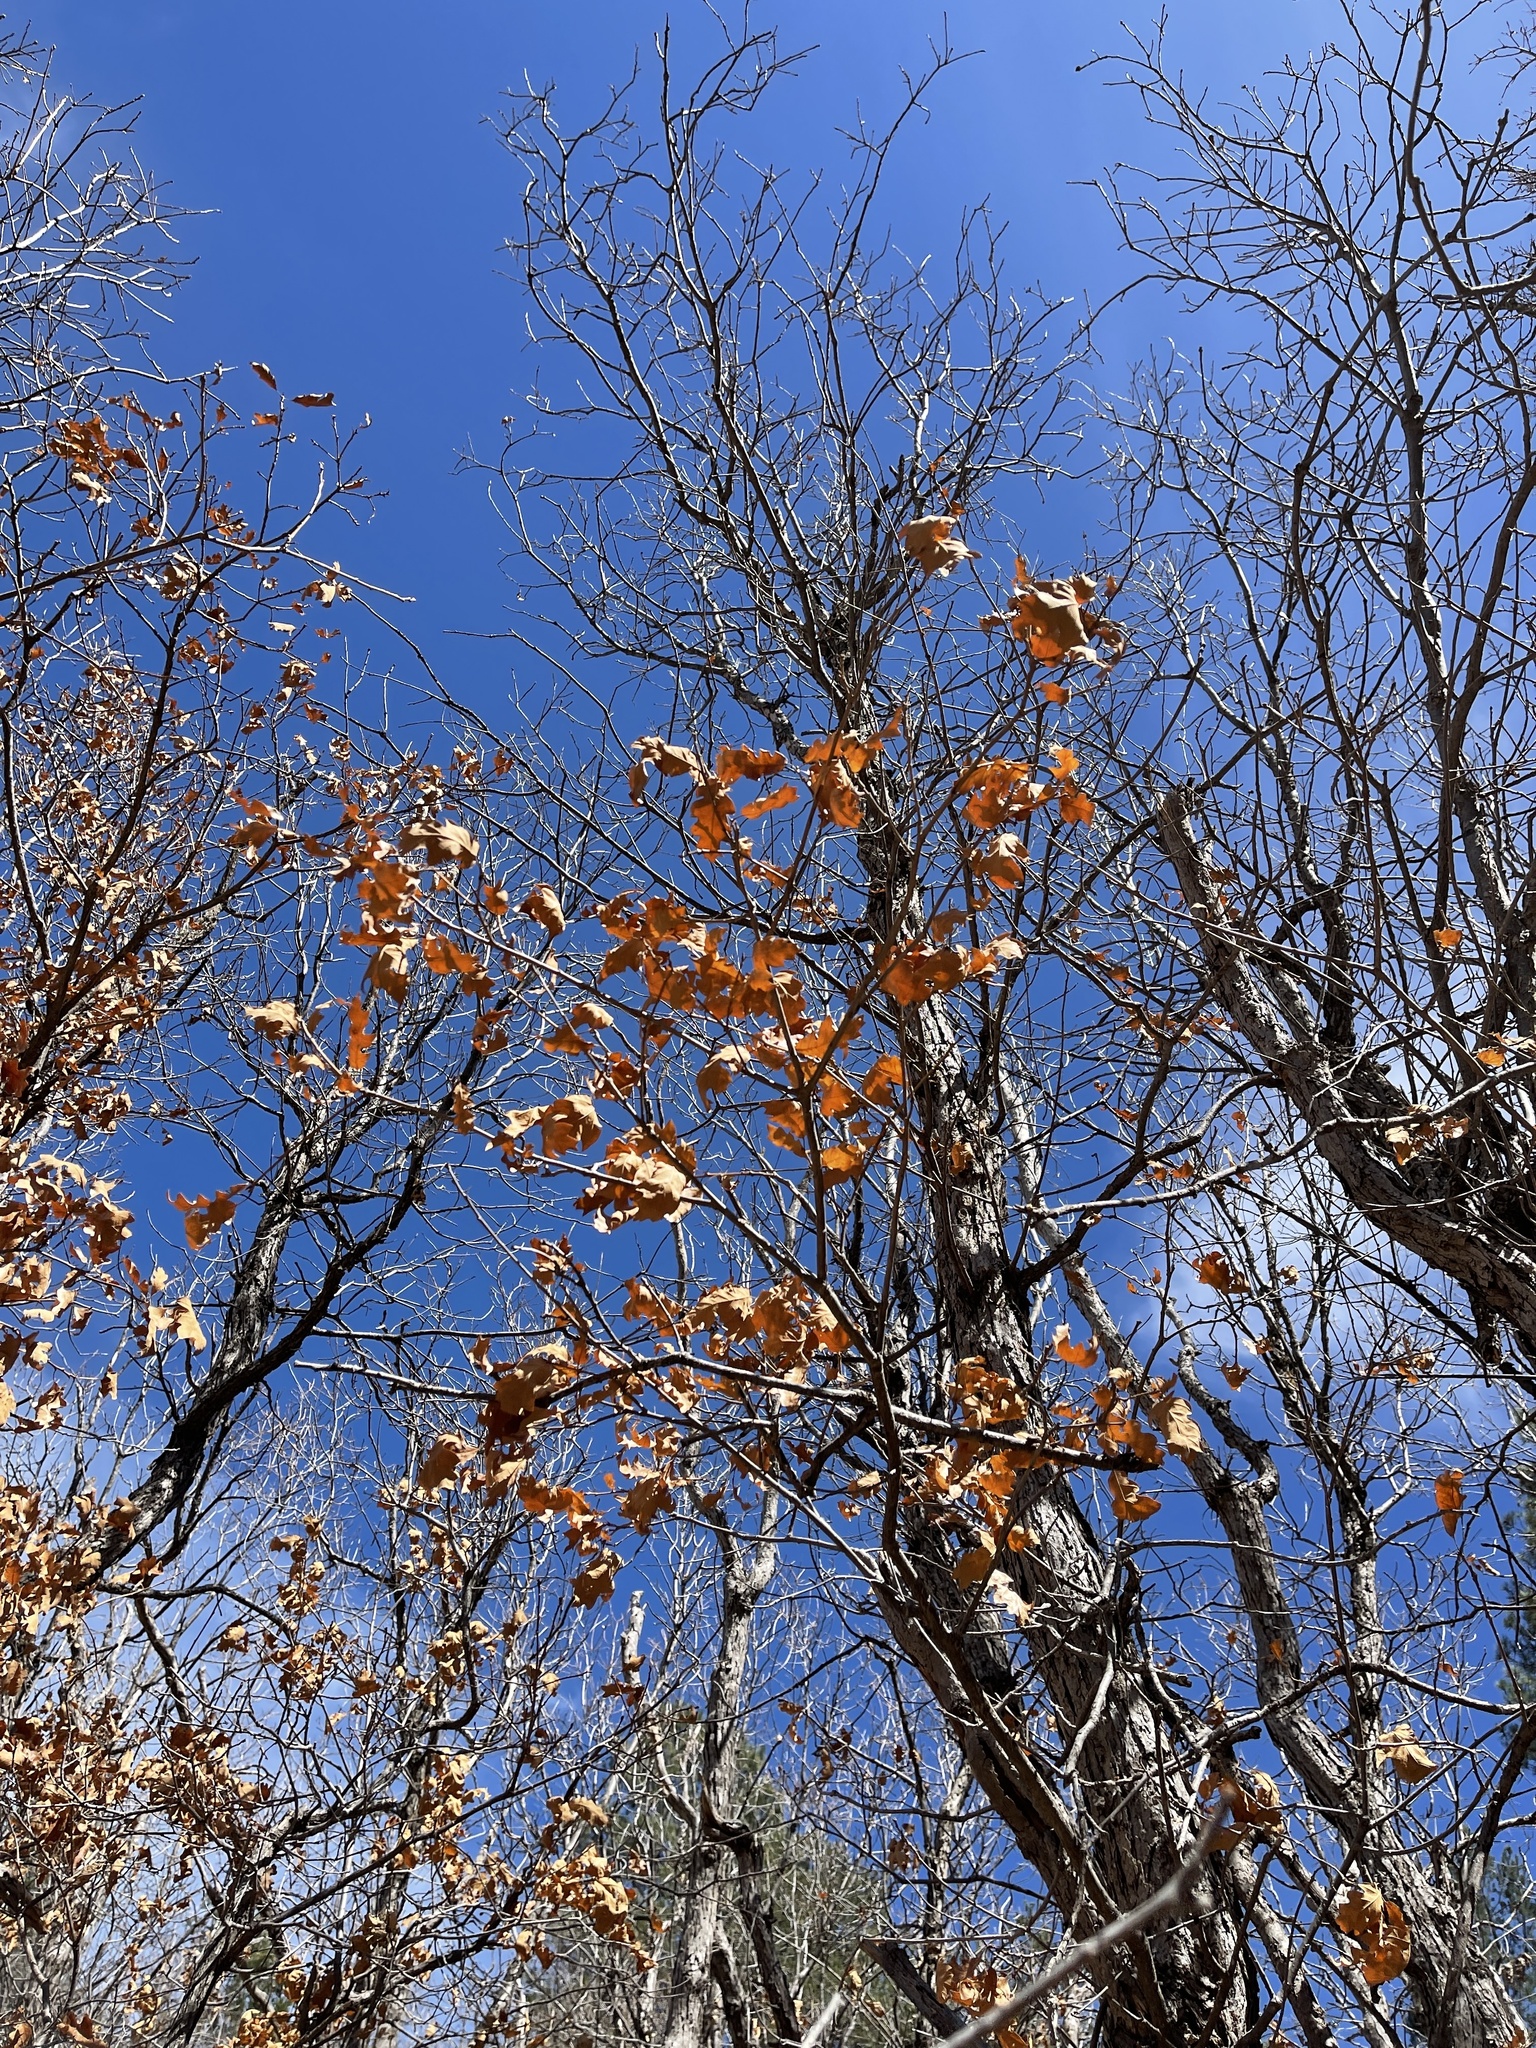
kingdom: Plantae
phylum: Tracheophyta
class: Magnoliopsida
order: Fagales
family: Fagaceae
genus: Quercus
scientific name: Quercus gambelii
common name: Gambel oak
